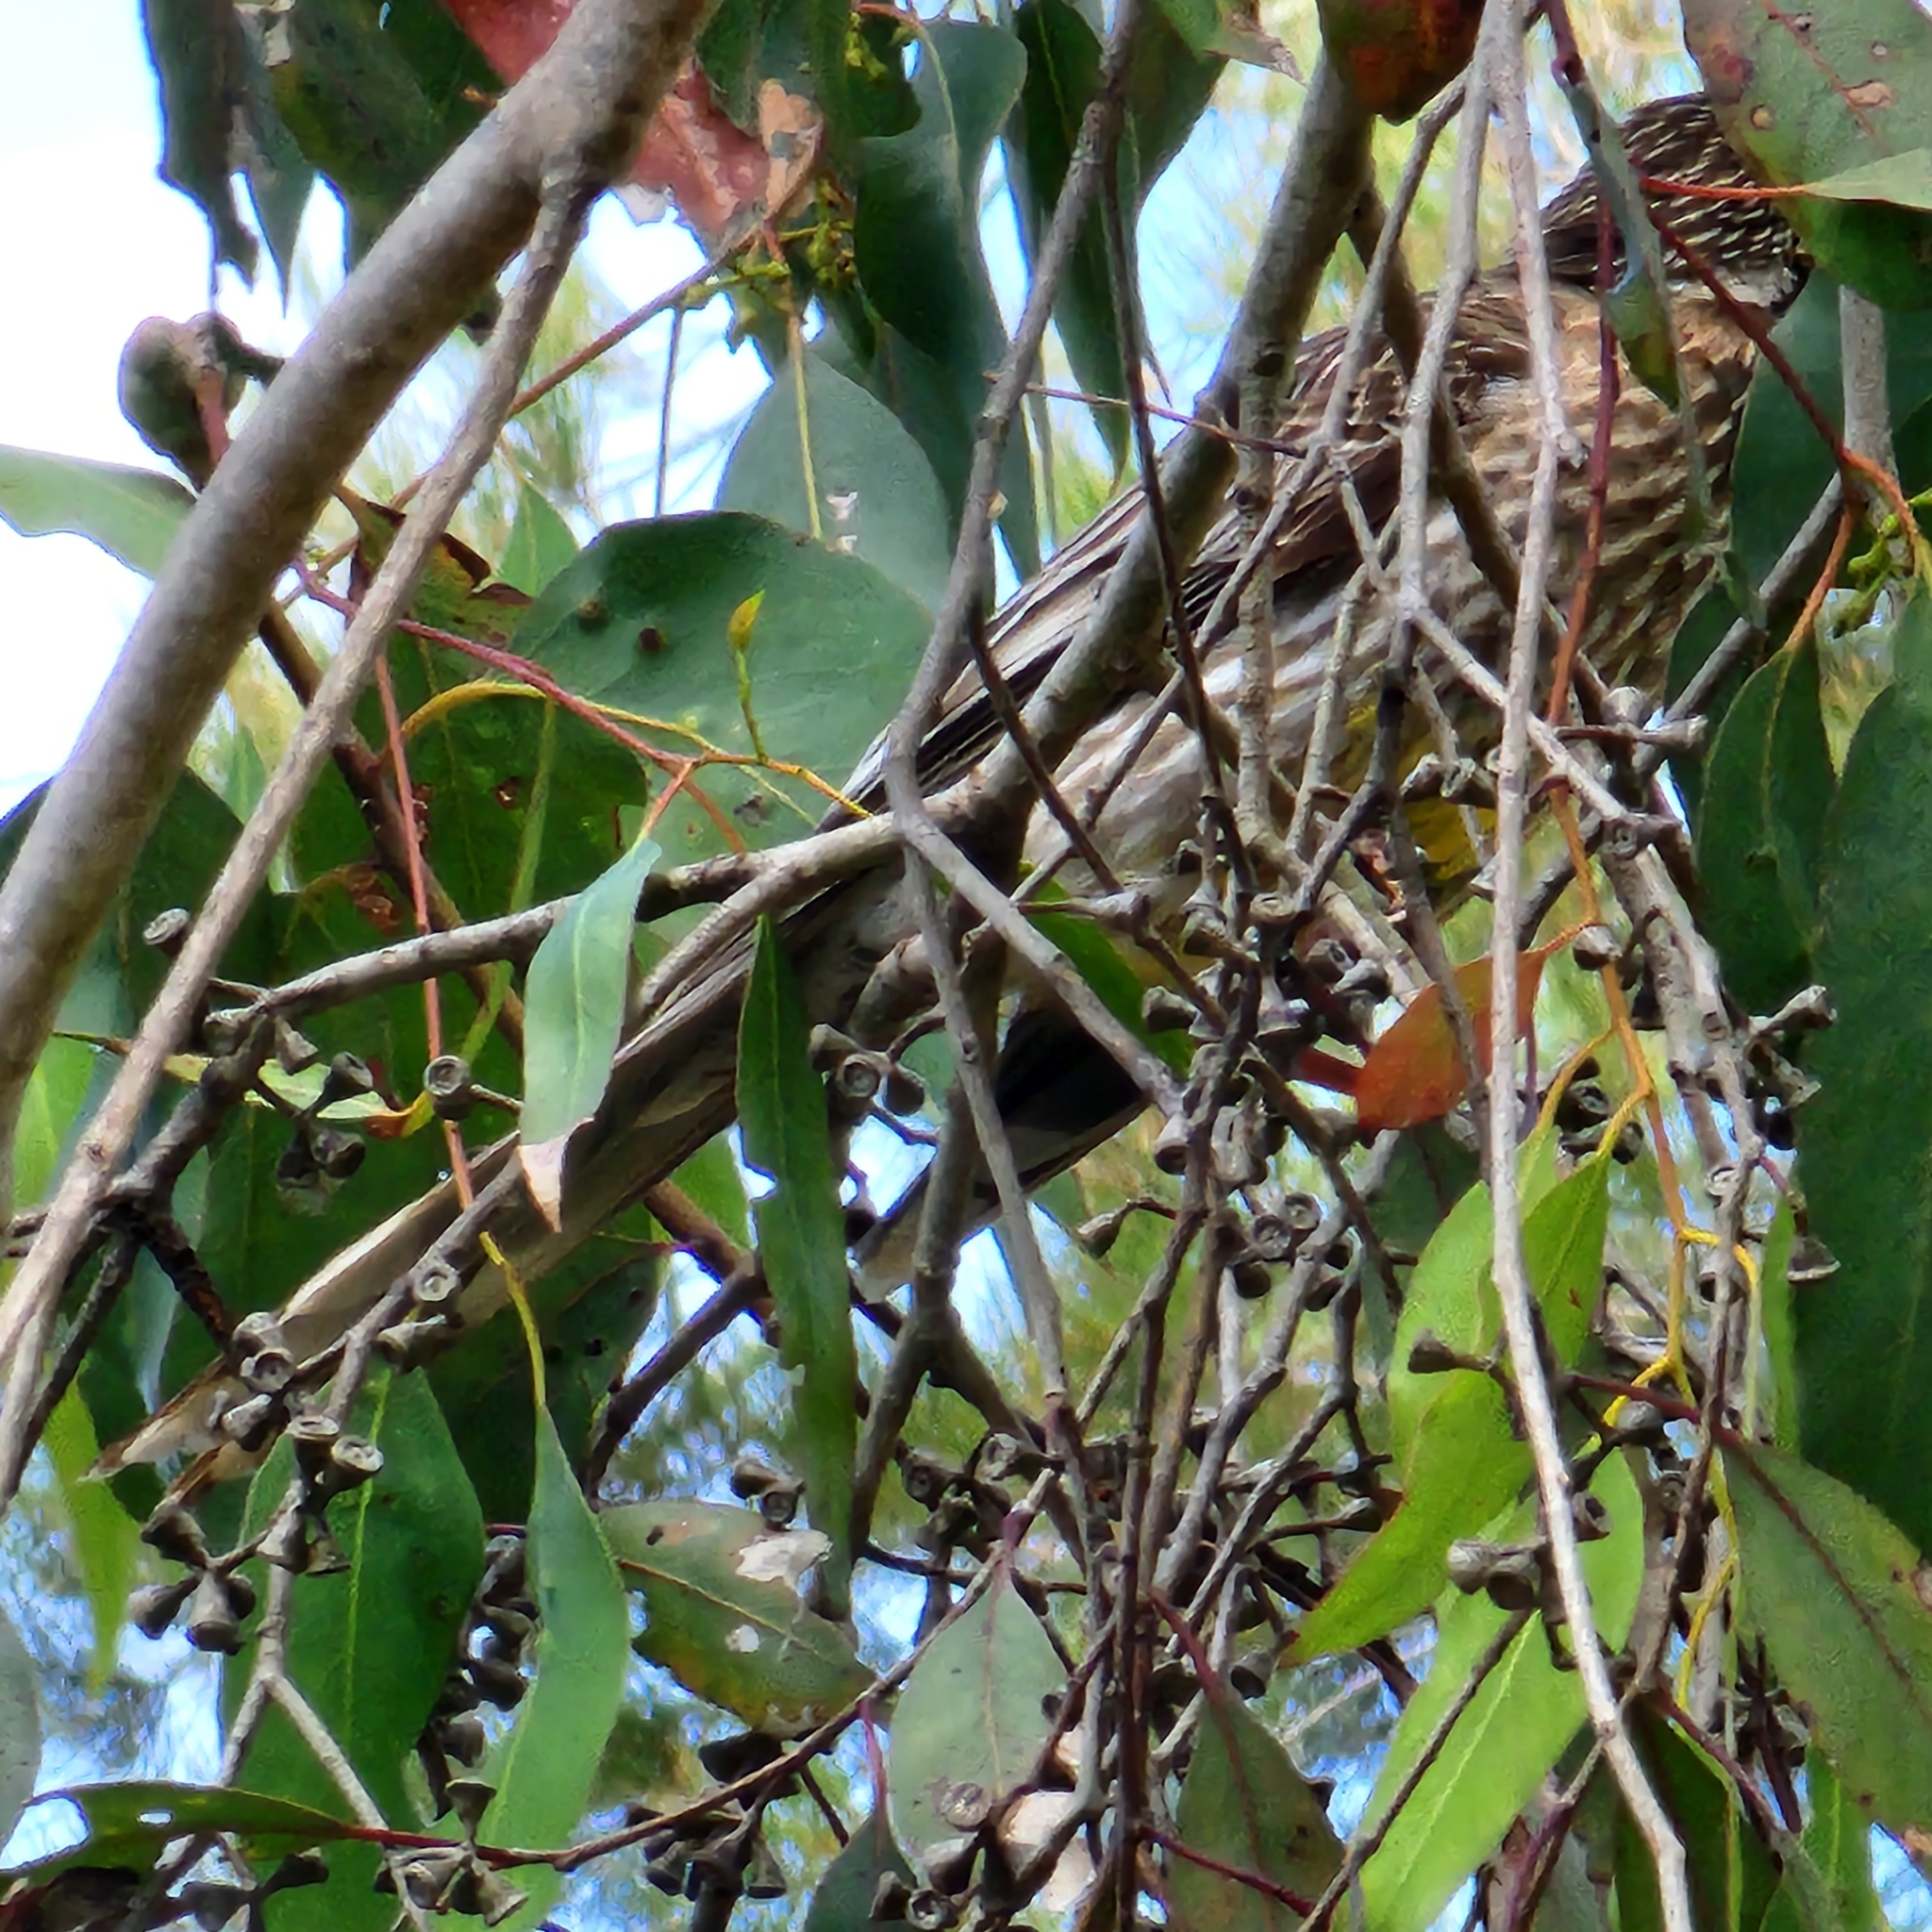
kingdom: Animalia
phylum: Chordata
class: Aves
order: Passeriformes
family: Meliphagidae
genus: Anthochaera
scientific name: Anthochaera carunculata
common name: Red wattlebird
